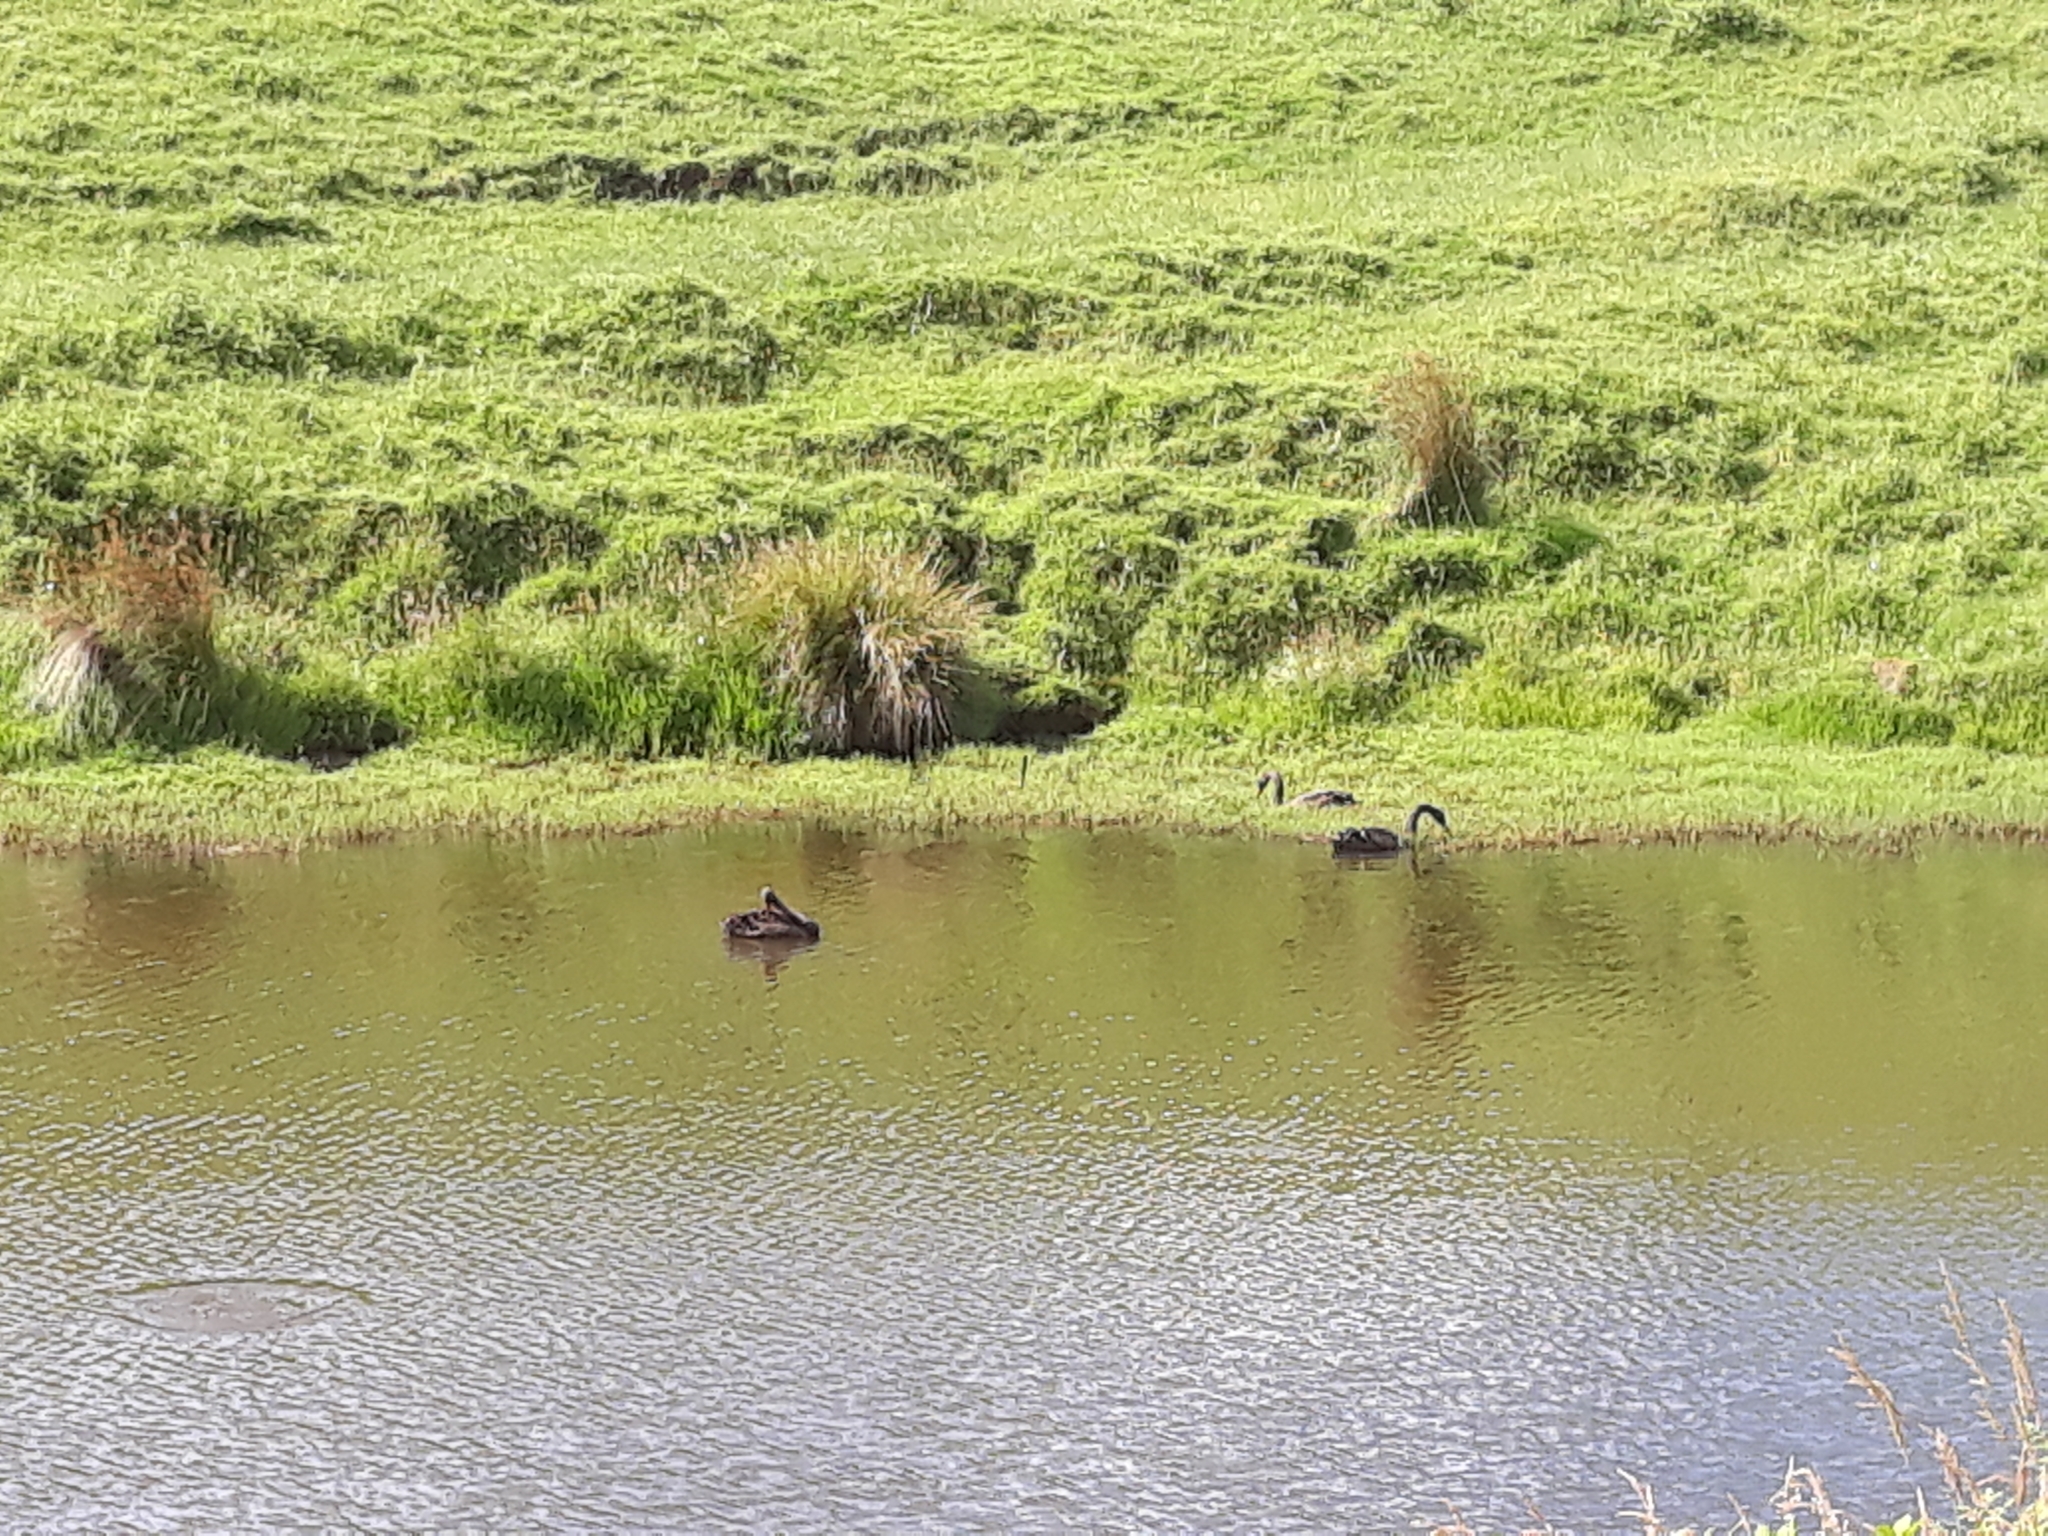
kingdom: Animalia
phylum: Chordata
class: Aves
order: Anseriformes
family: Anatidae
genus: Cygnus
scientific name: Cygnus atratus
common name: Black swan
